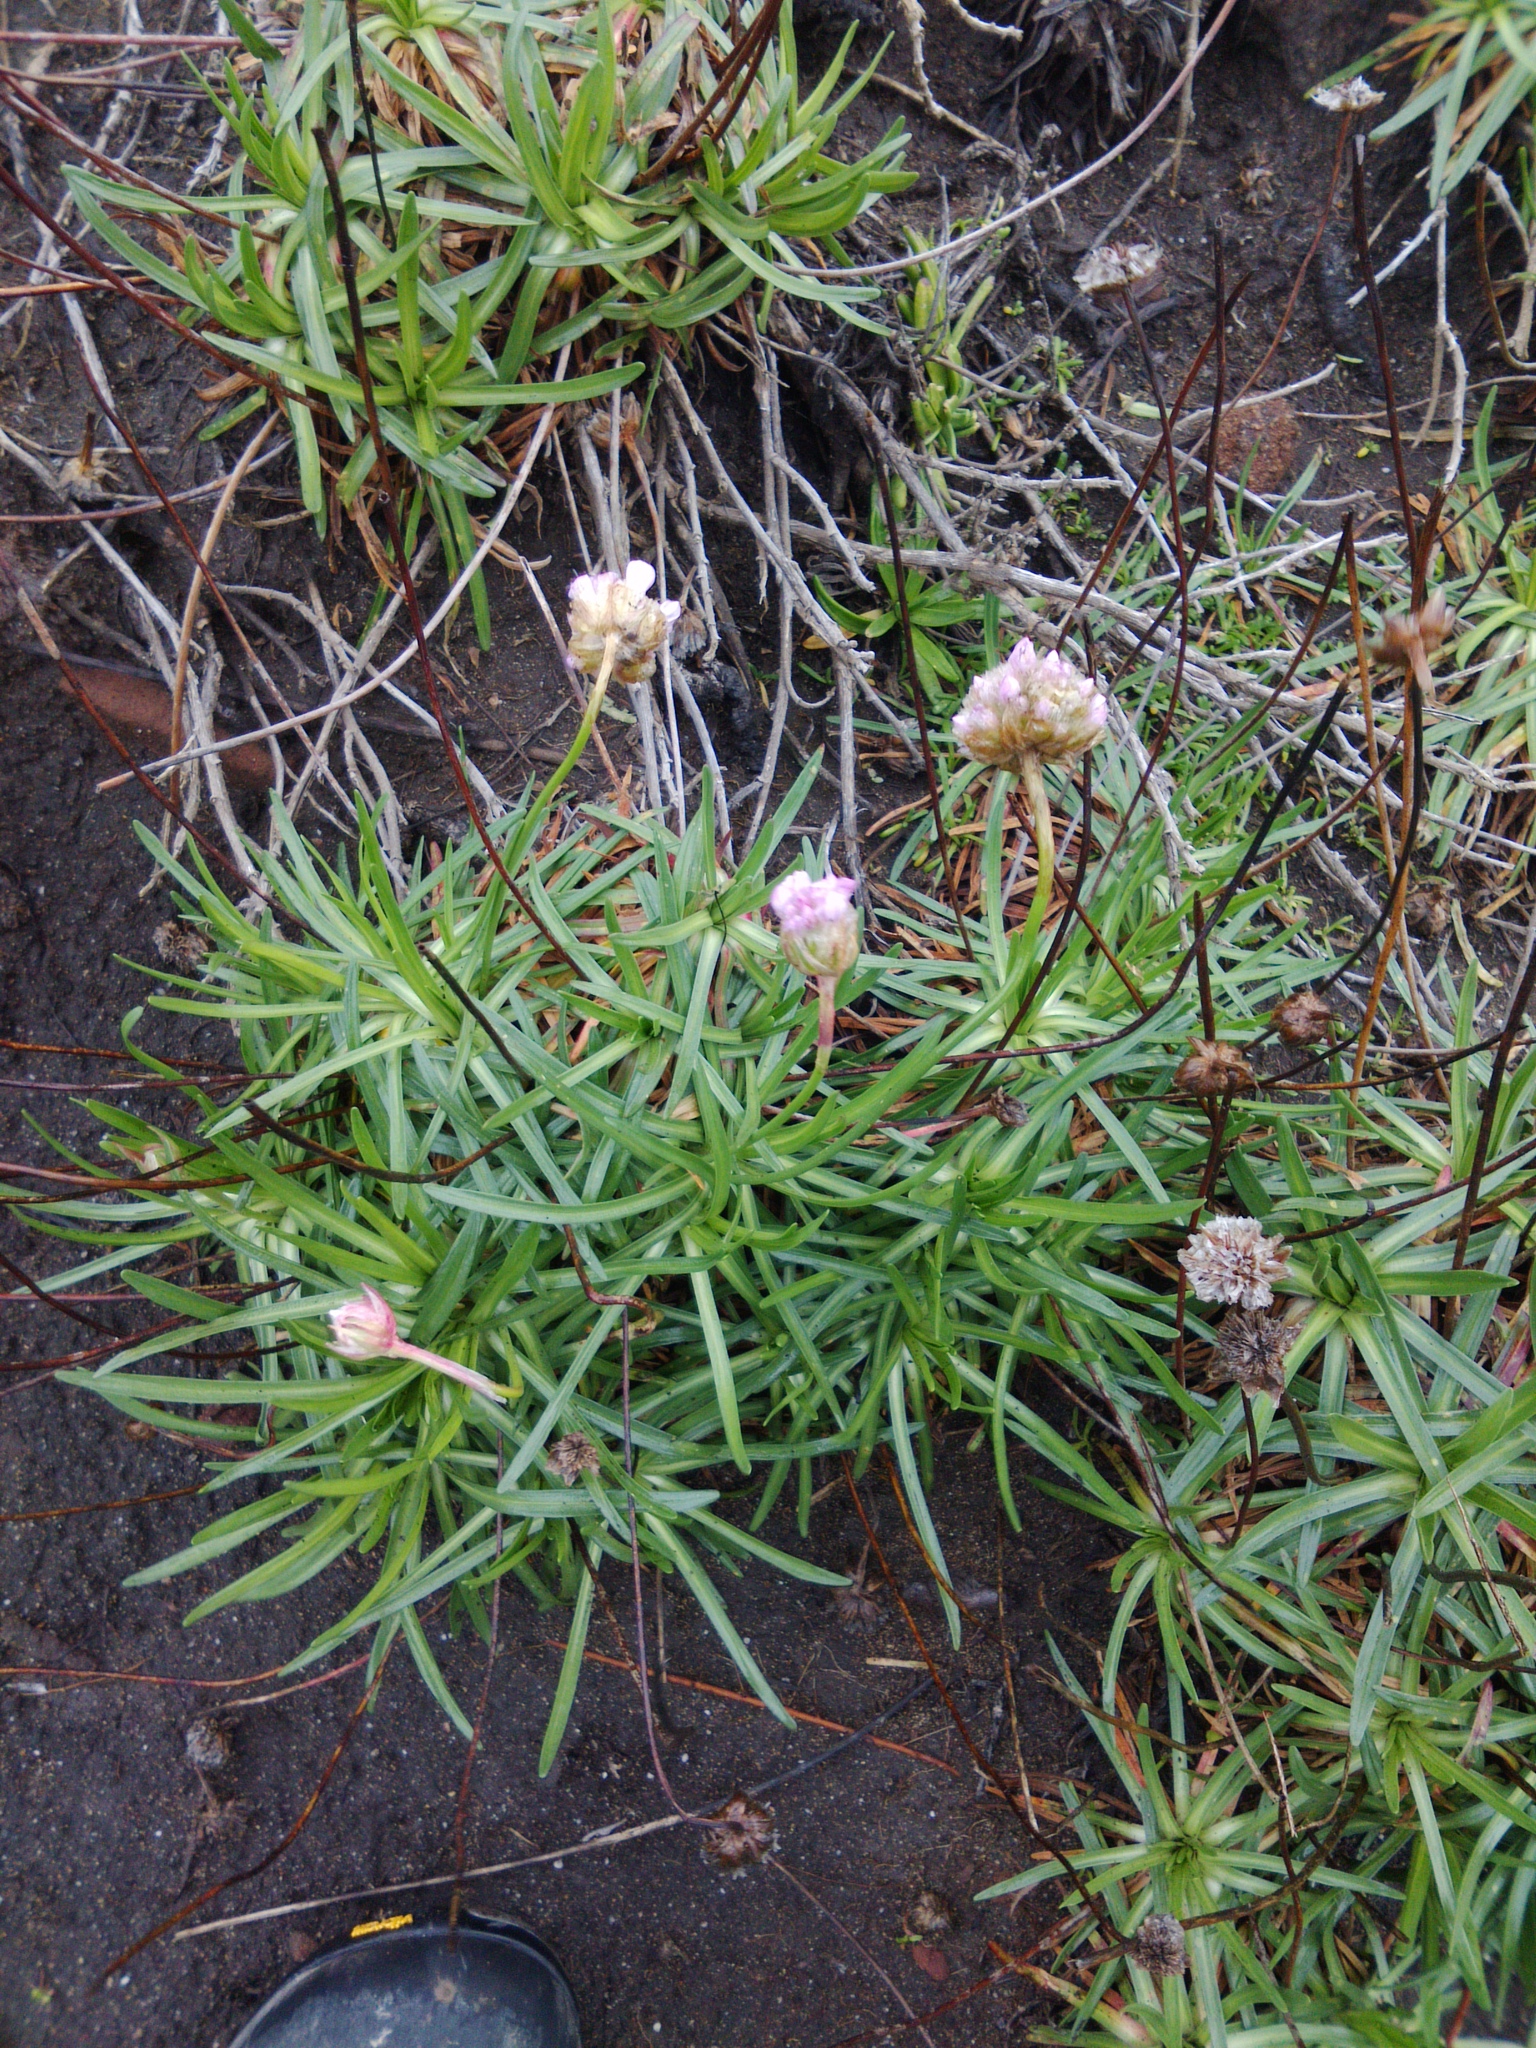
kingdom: Plantae
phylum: Tracheophyta
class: Magnoliopsida
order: Caryophyllales
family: Plumbaginaceae
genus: Armeria
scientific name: Armeria maritima
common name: Thrift
